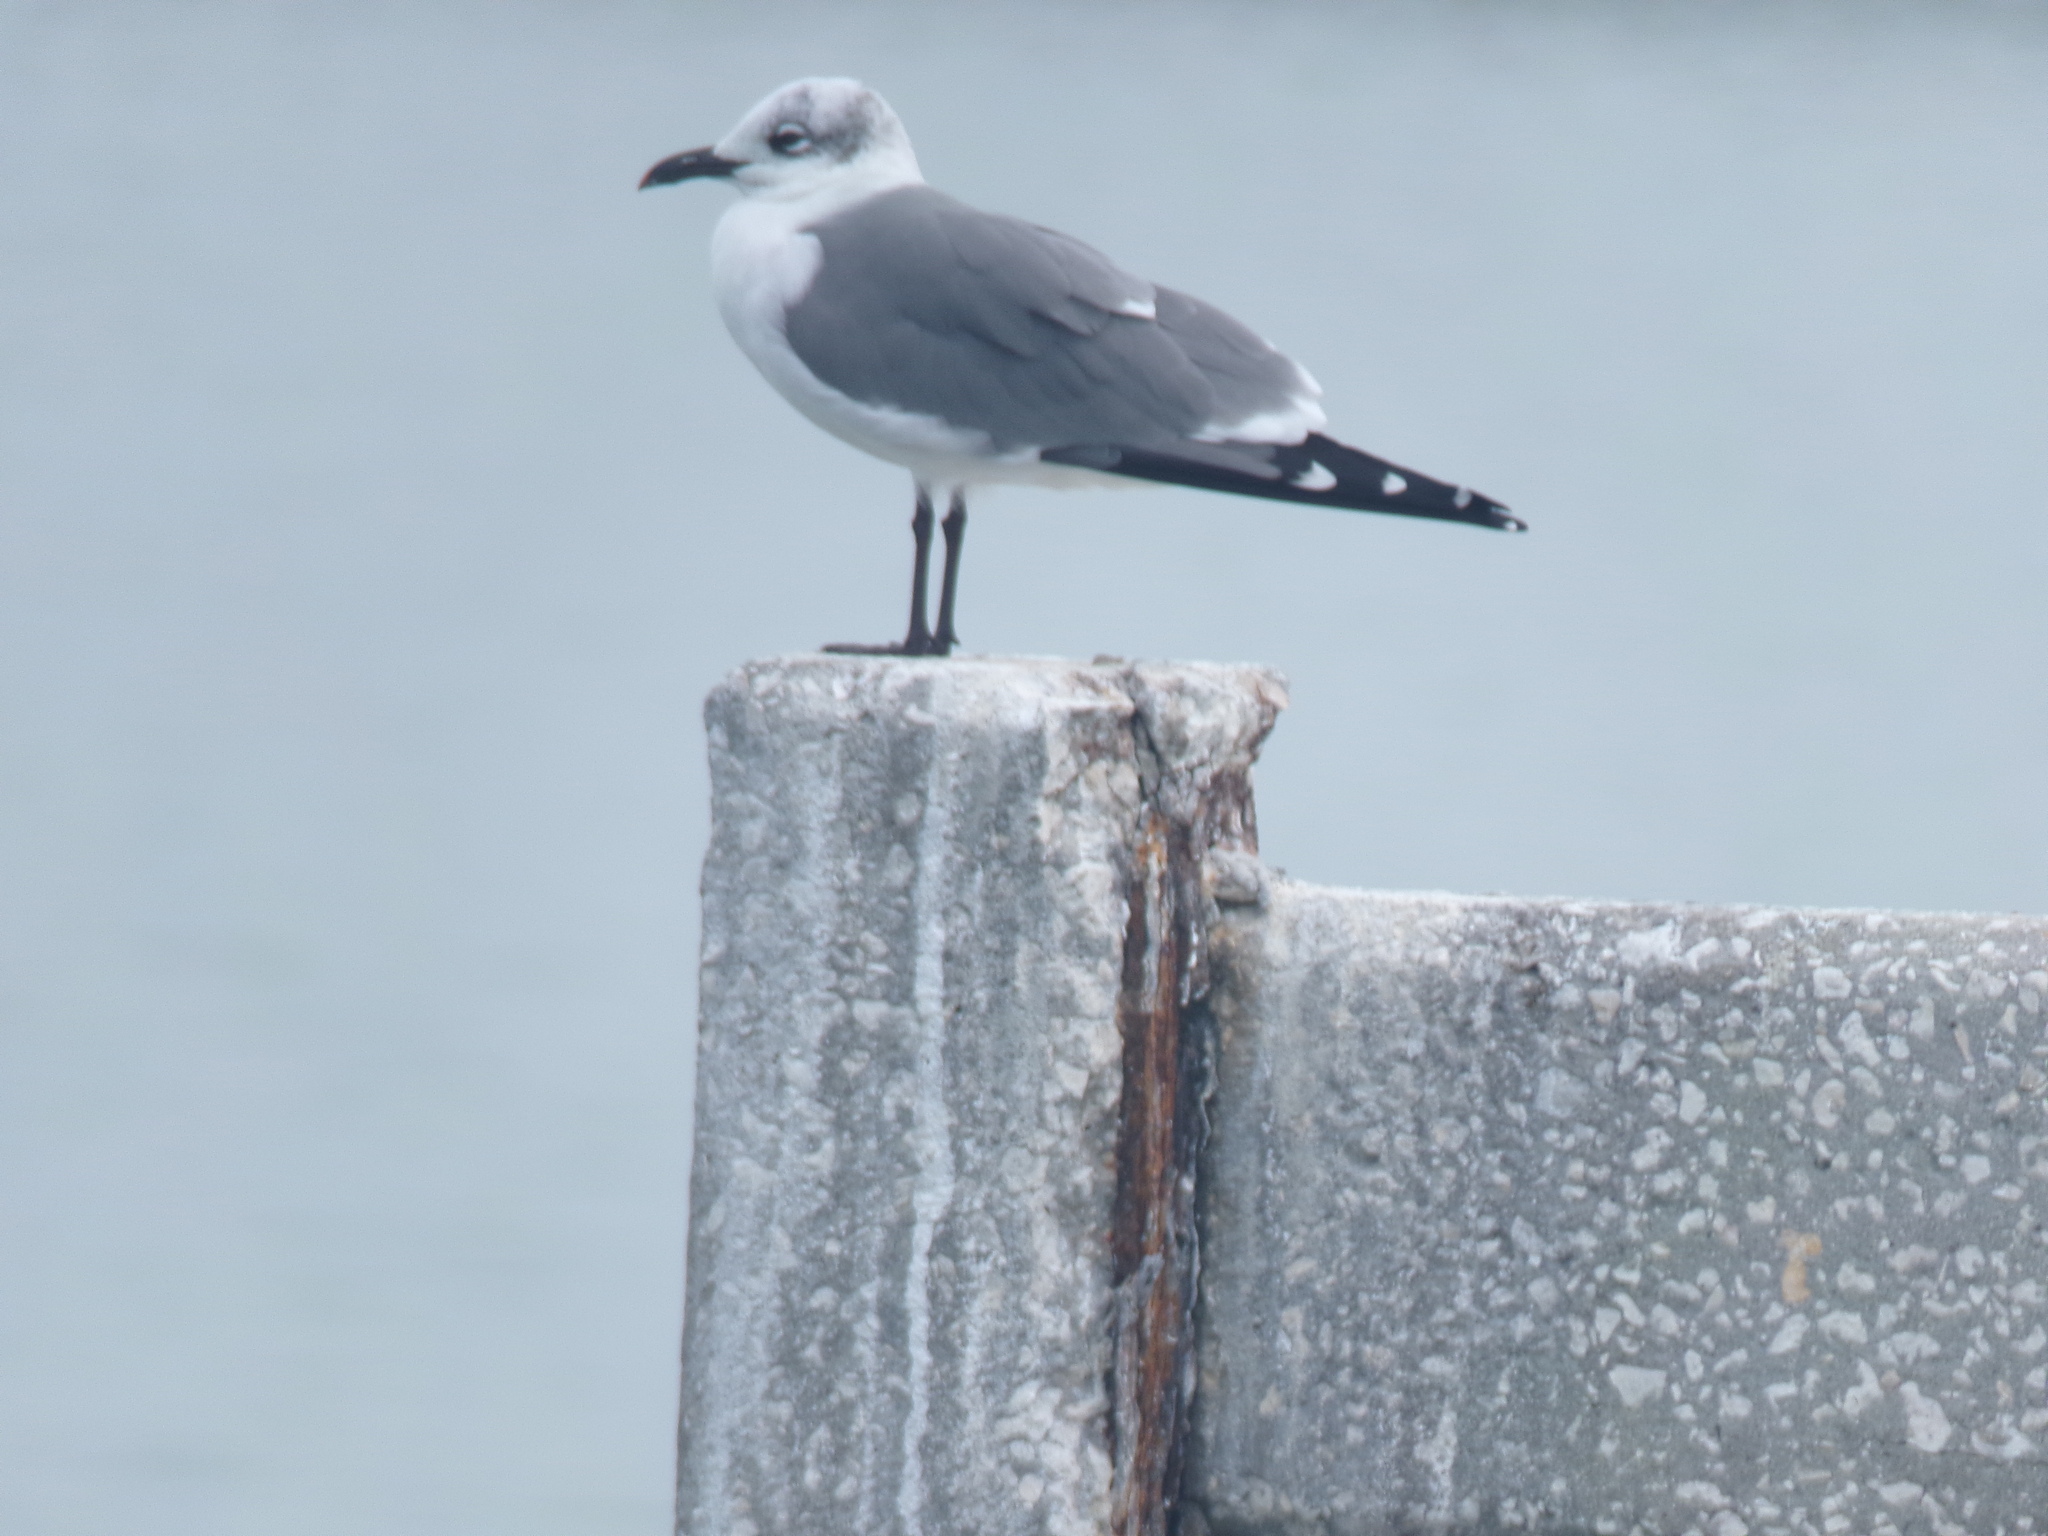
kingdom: Animalia
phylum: Chordata
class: Aves
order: Charadriiformes
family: Laridae
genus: Leucophaeus
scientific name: Leucophaeus atricilla
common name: Laughing gull
